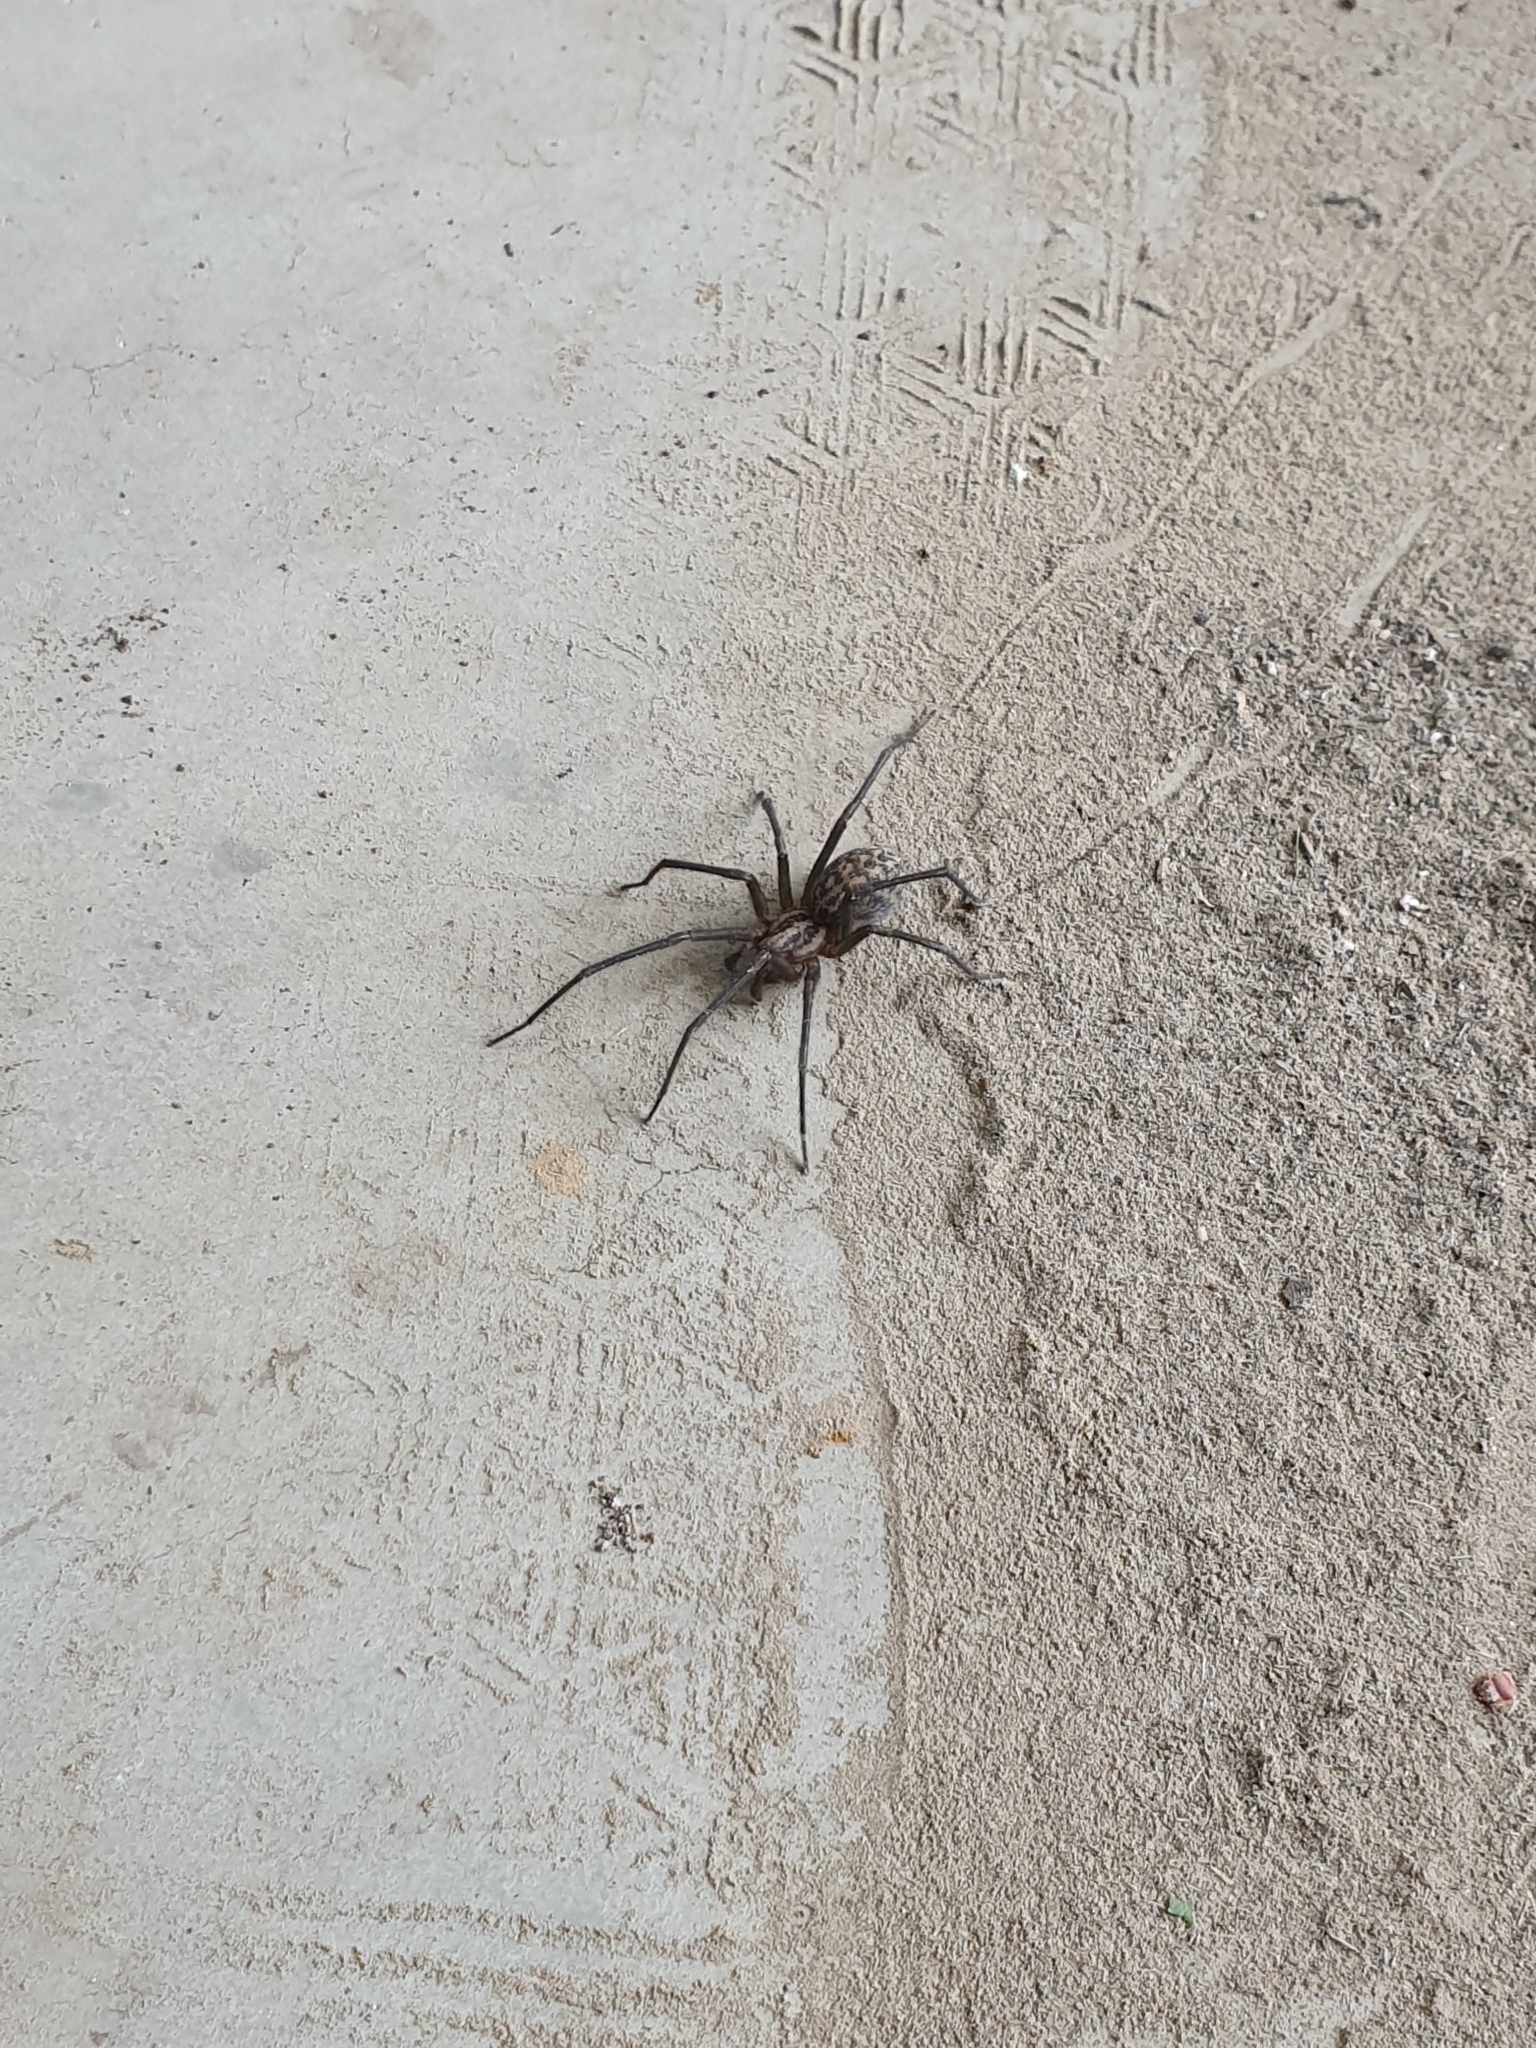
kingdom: Animalia
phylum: Arthropoda
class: Arachnida
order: Araneae
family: Agelenidae
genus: Eratigena
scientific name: Eratigena atrica
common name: Giant house spider
